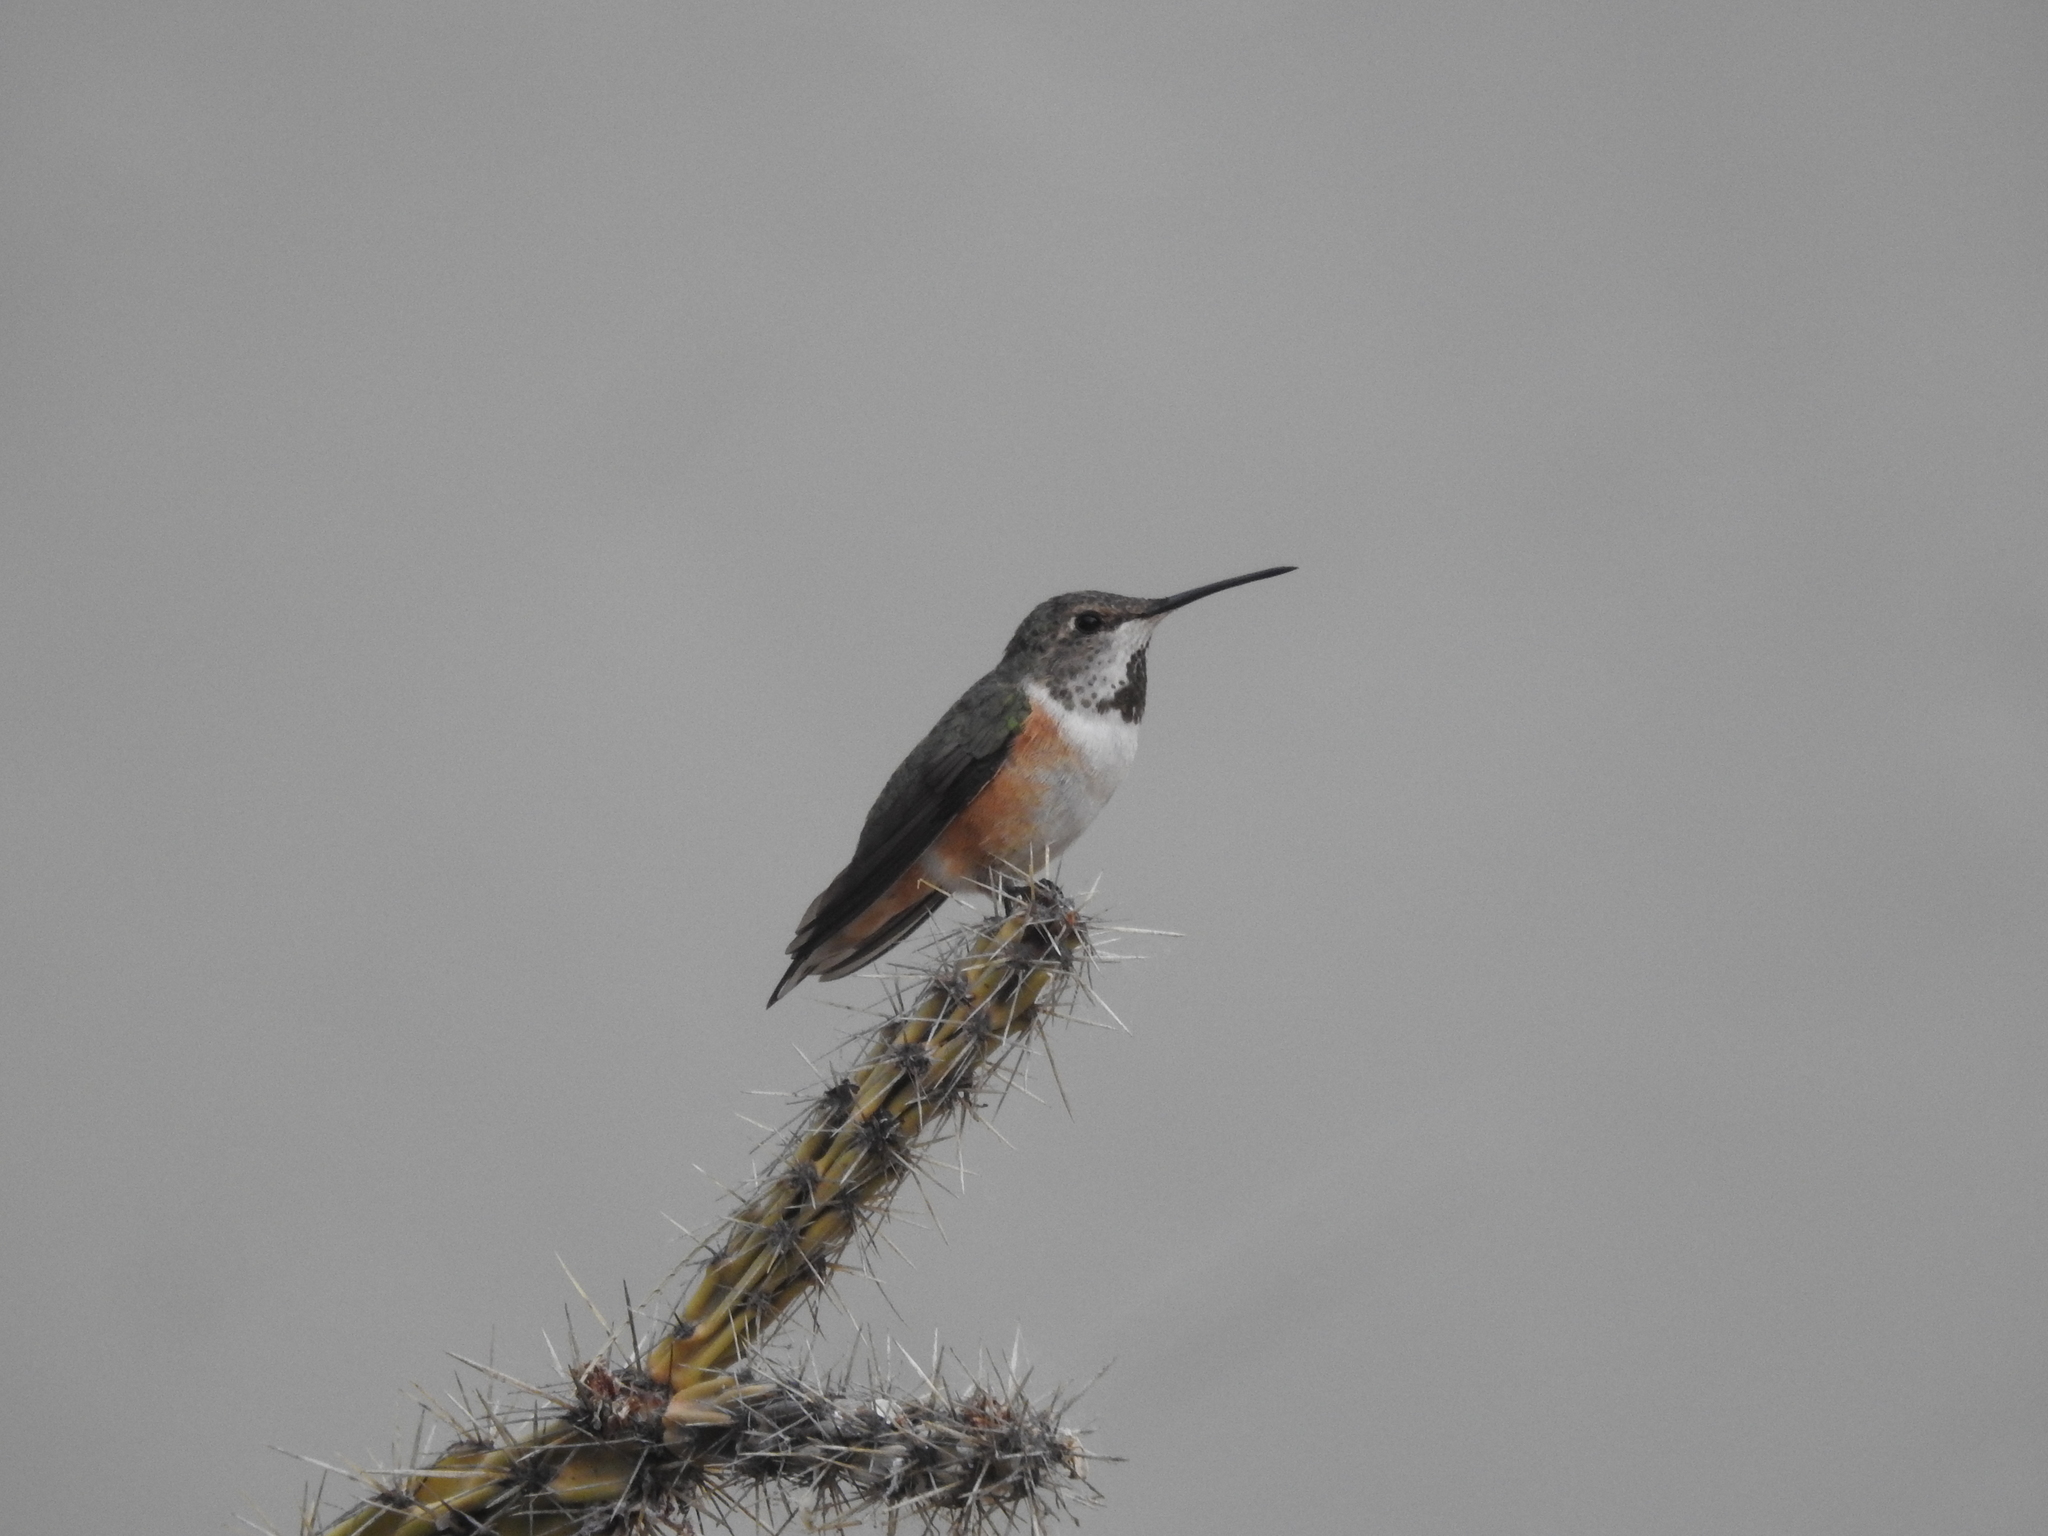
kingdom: Animalia
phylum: Chordata
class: Aves
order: Apodiformes
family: Trochilidae
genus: Selasphorus
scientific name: Selasphorus rufus
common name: Rufous hummingbird
